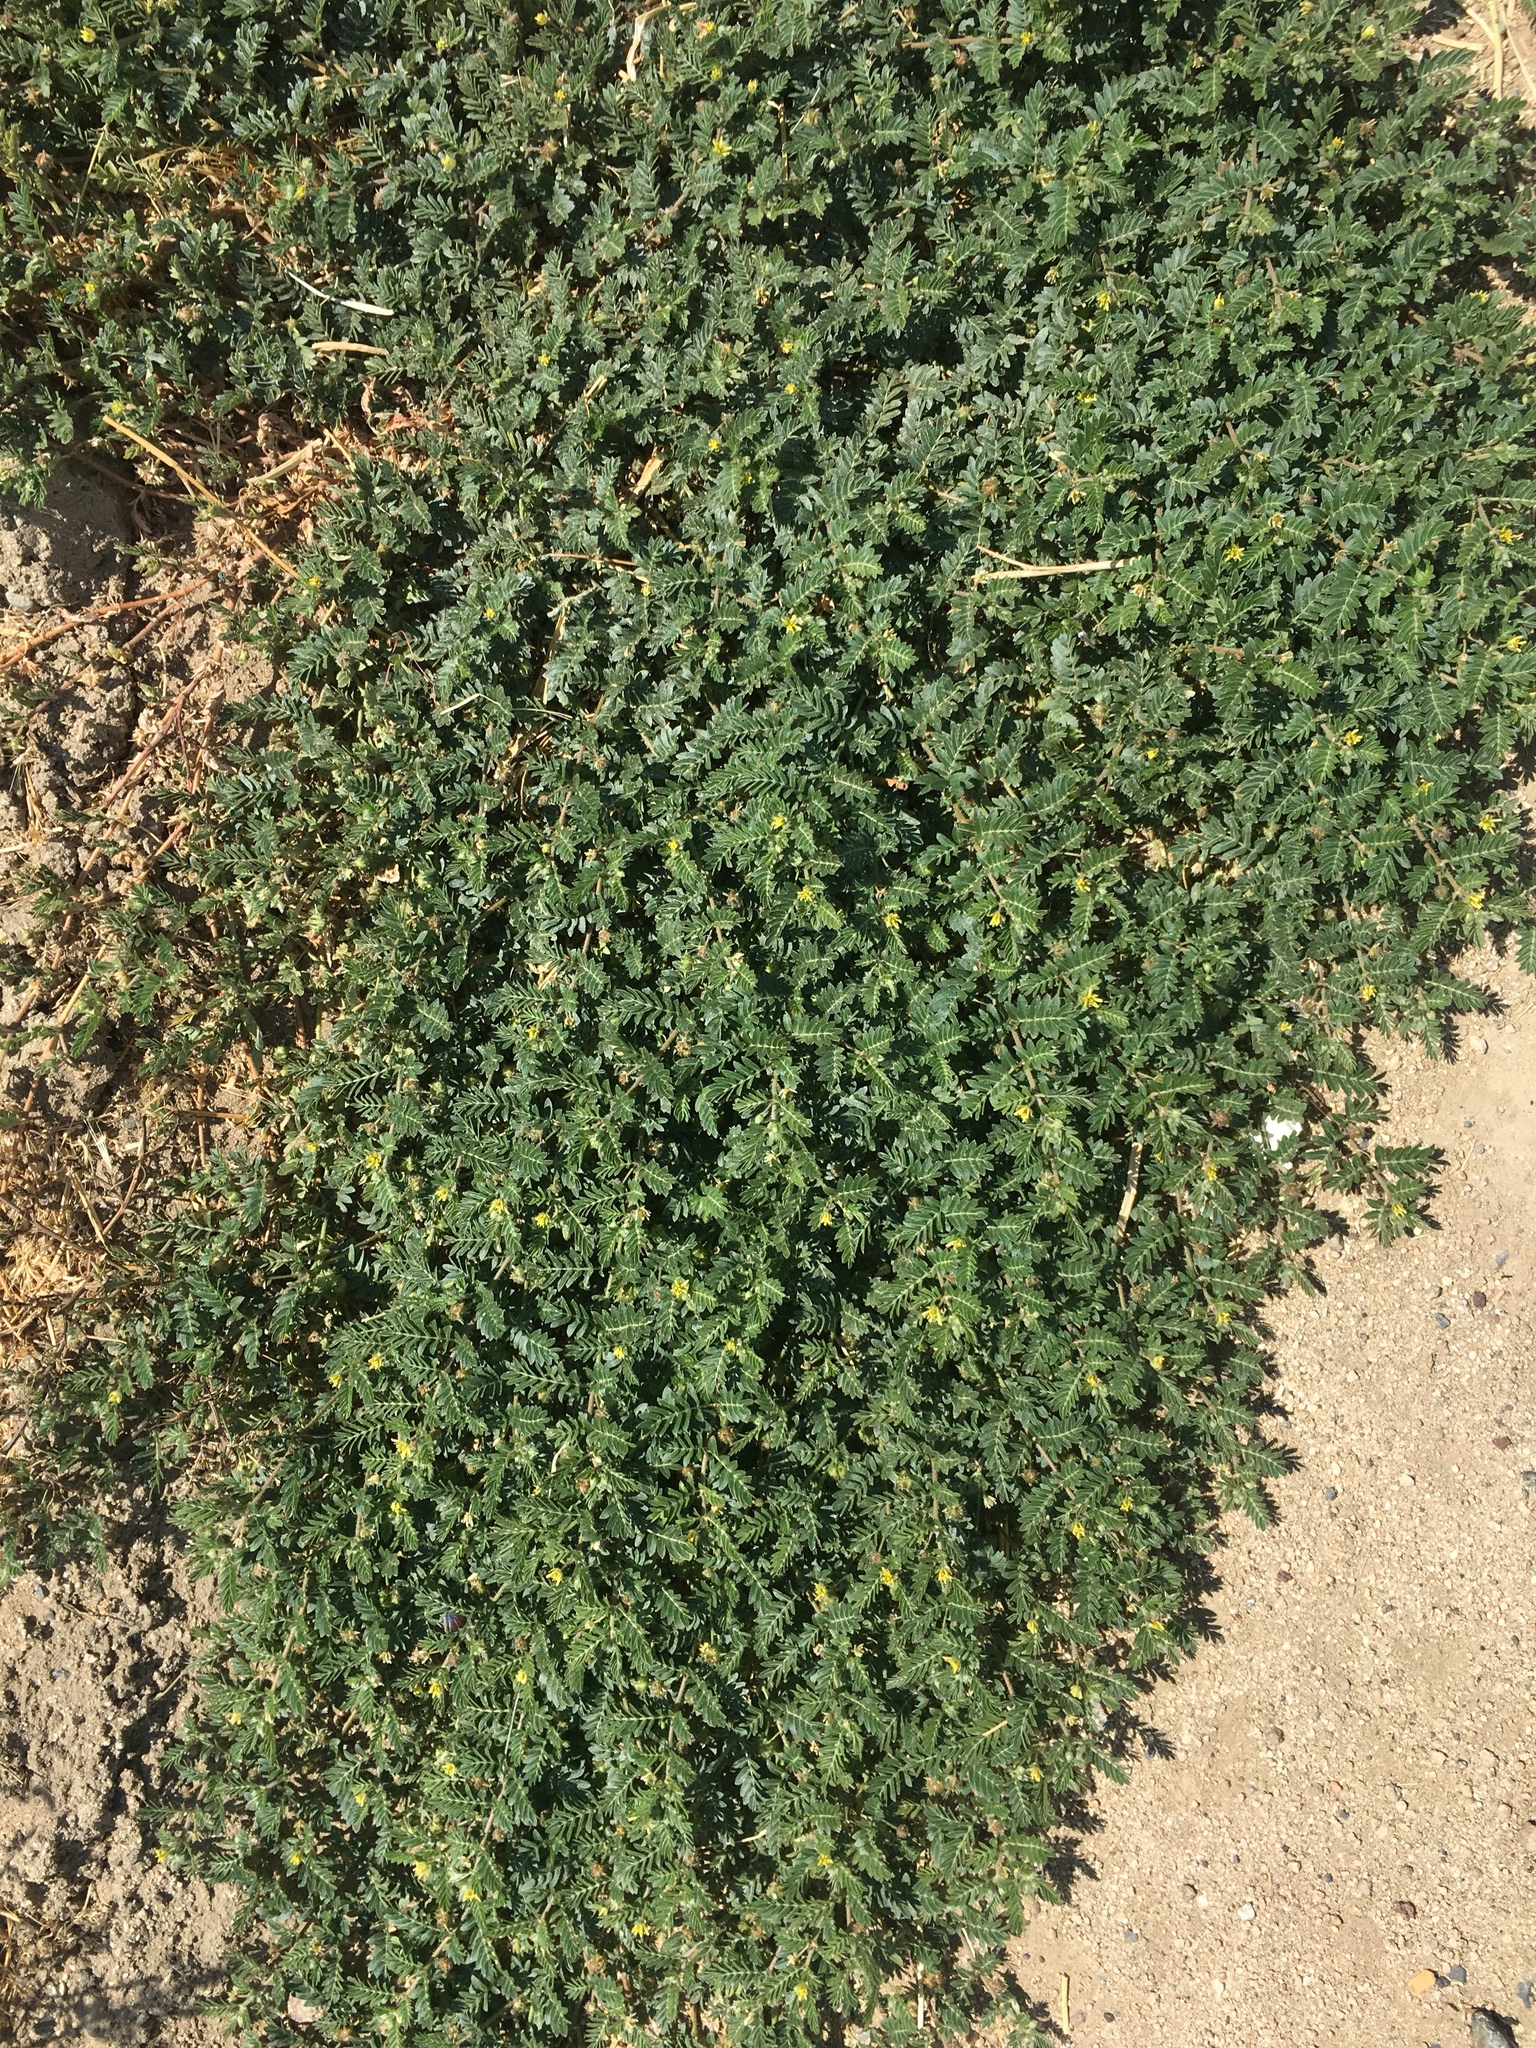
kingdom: Plantae
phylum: Tracheophyta
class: Magnoliopsida
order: Zygophyllales
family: Zygophyllaceae
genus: Tribulus
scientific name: Tribulus terrestris
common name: Puncturevine
